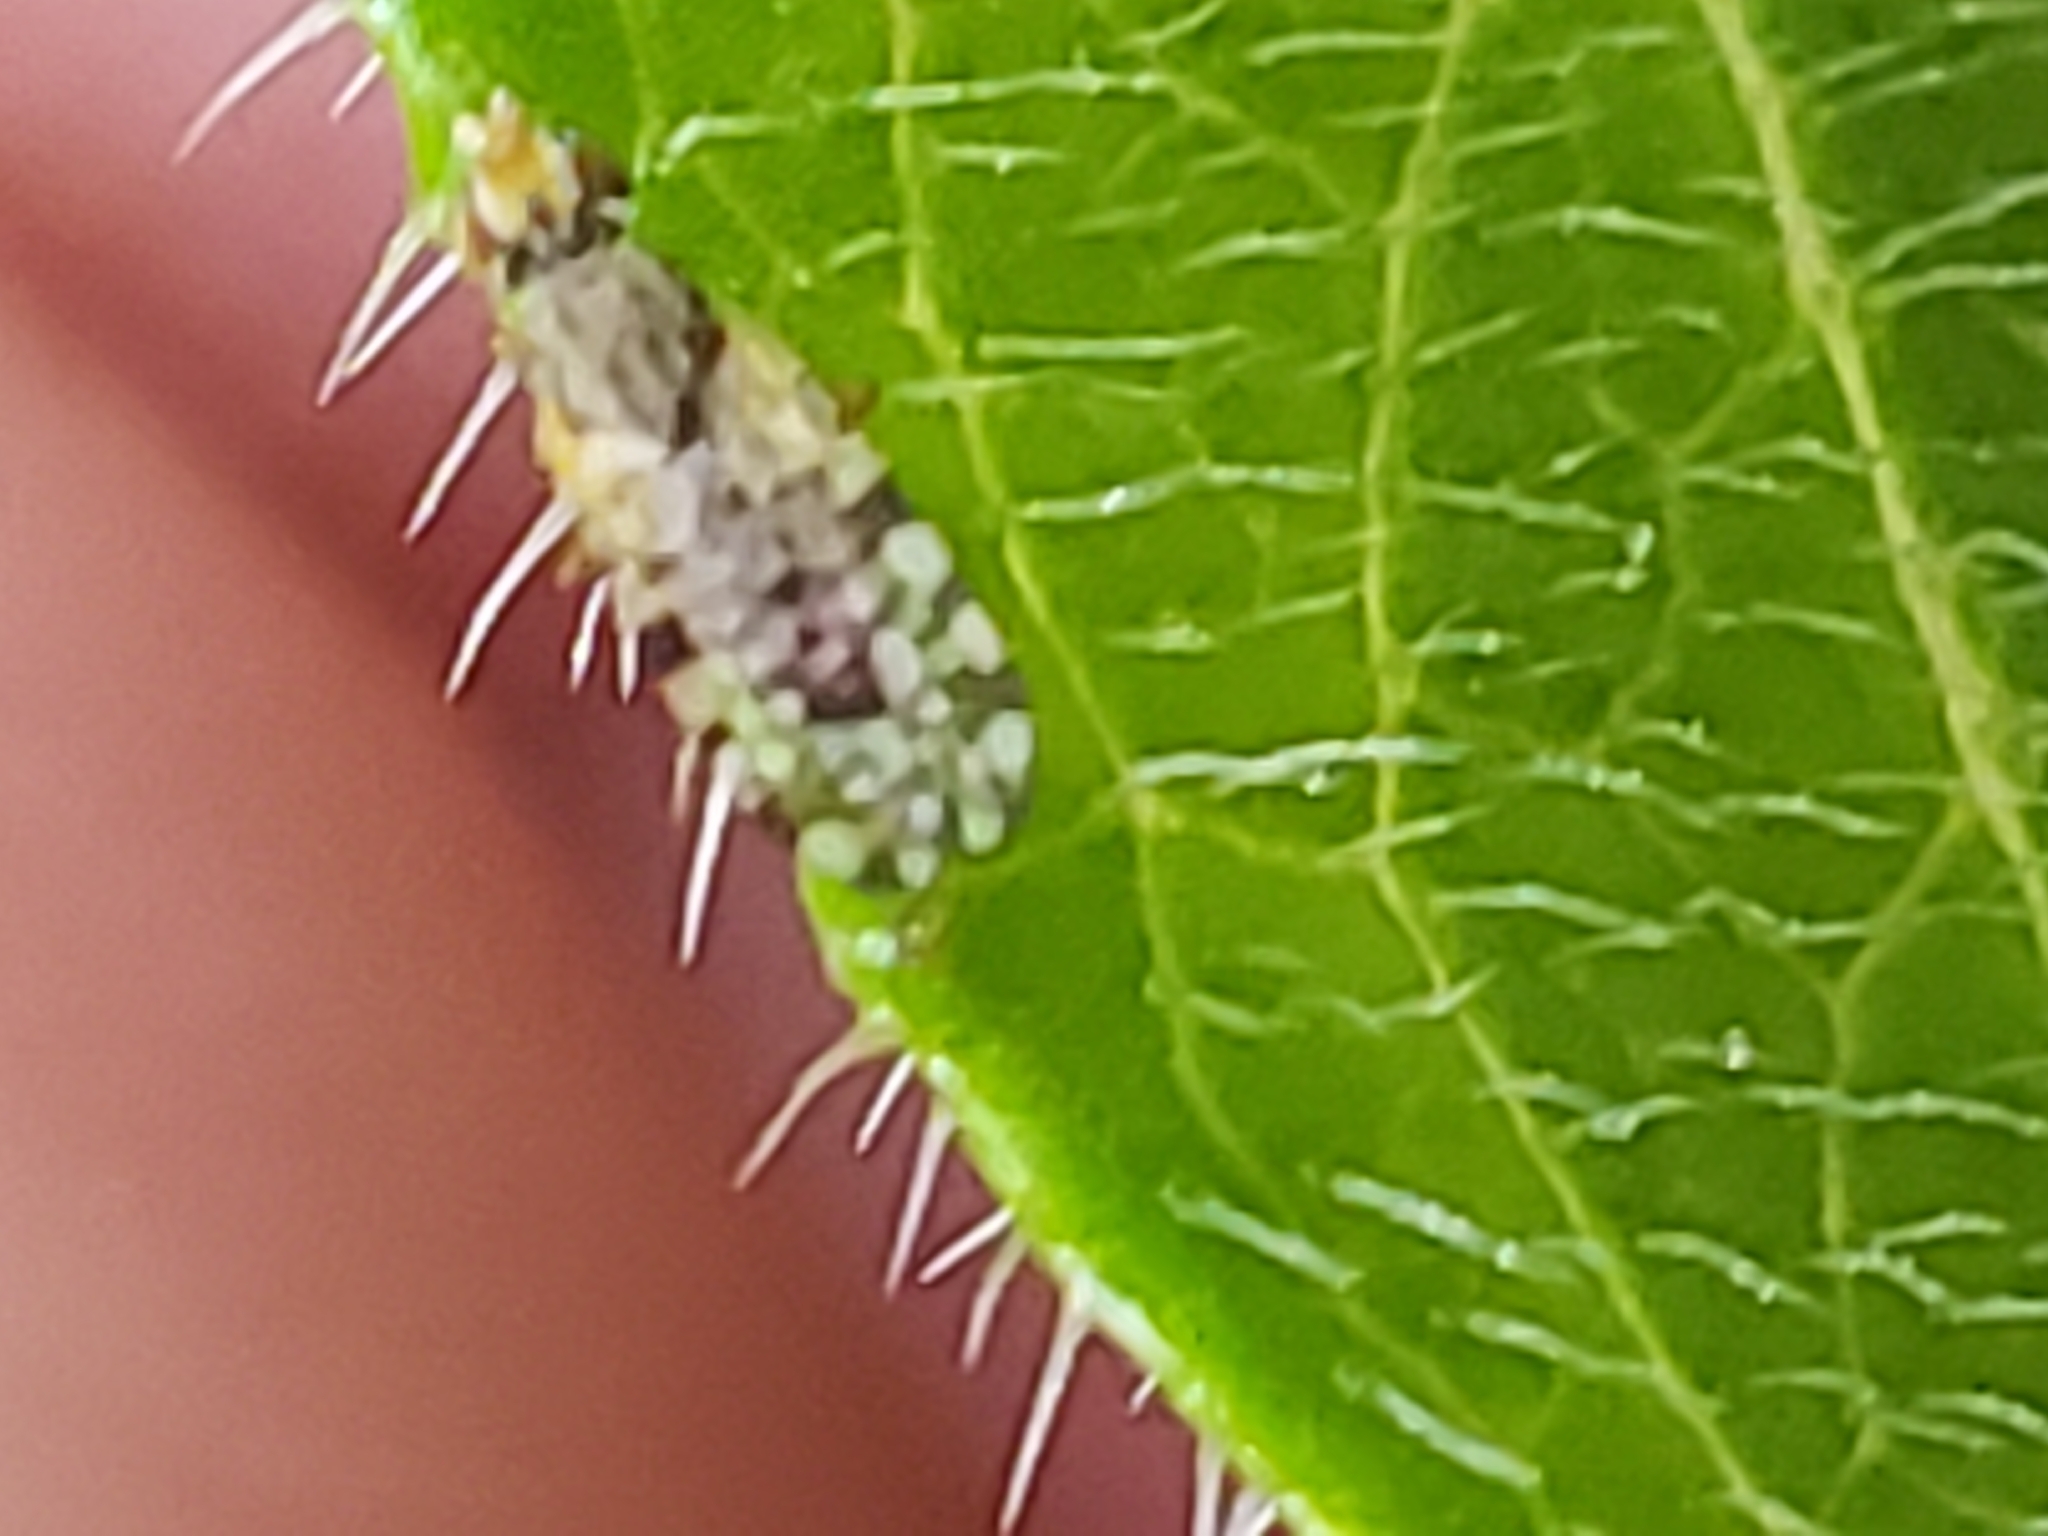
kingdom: Animalia
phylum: Arthropoda
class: Insecta
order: Diptera
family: Tephritidae
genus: Dioxyna
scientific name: Dioxyna picciola
